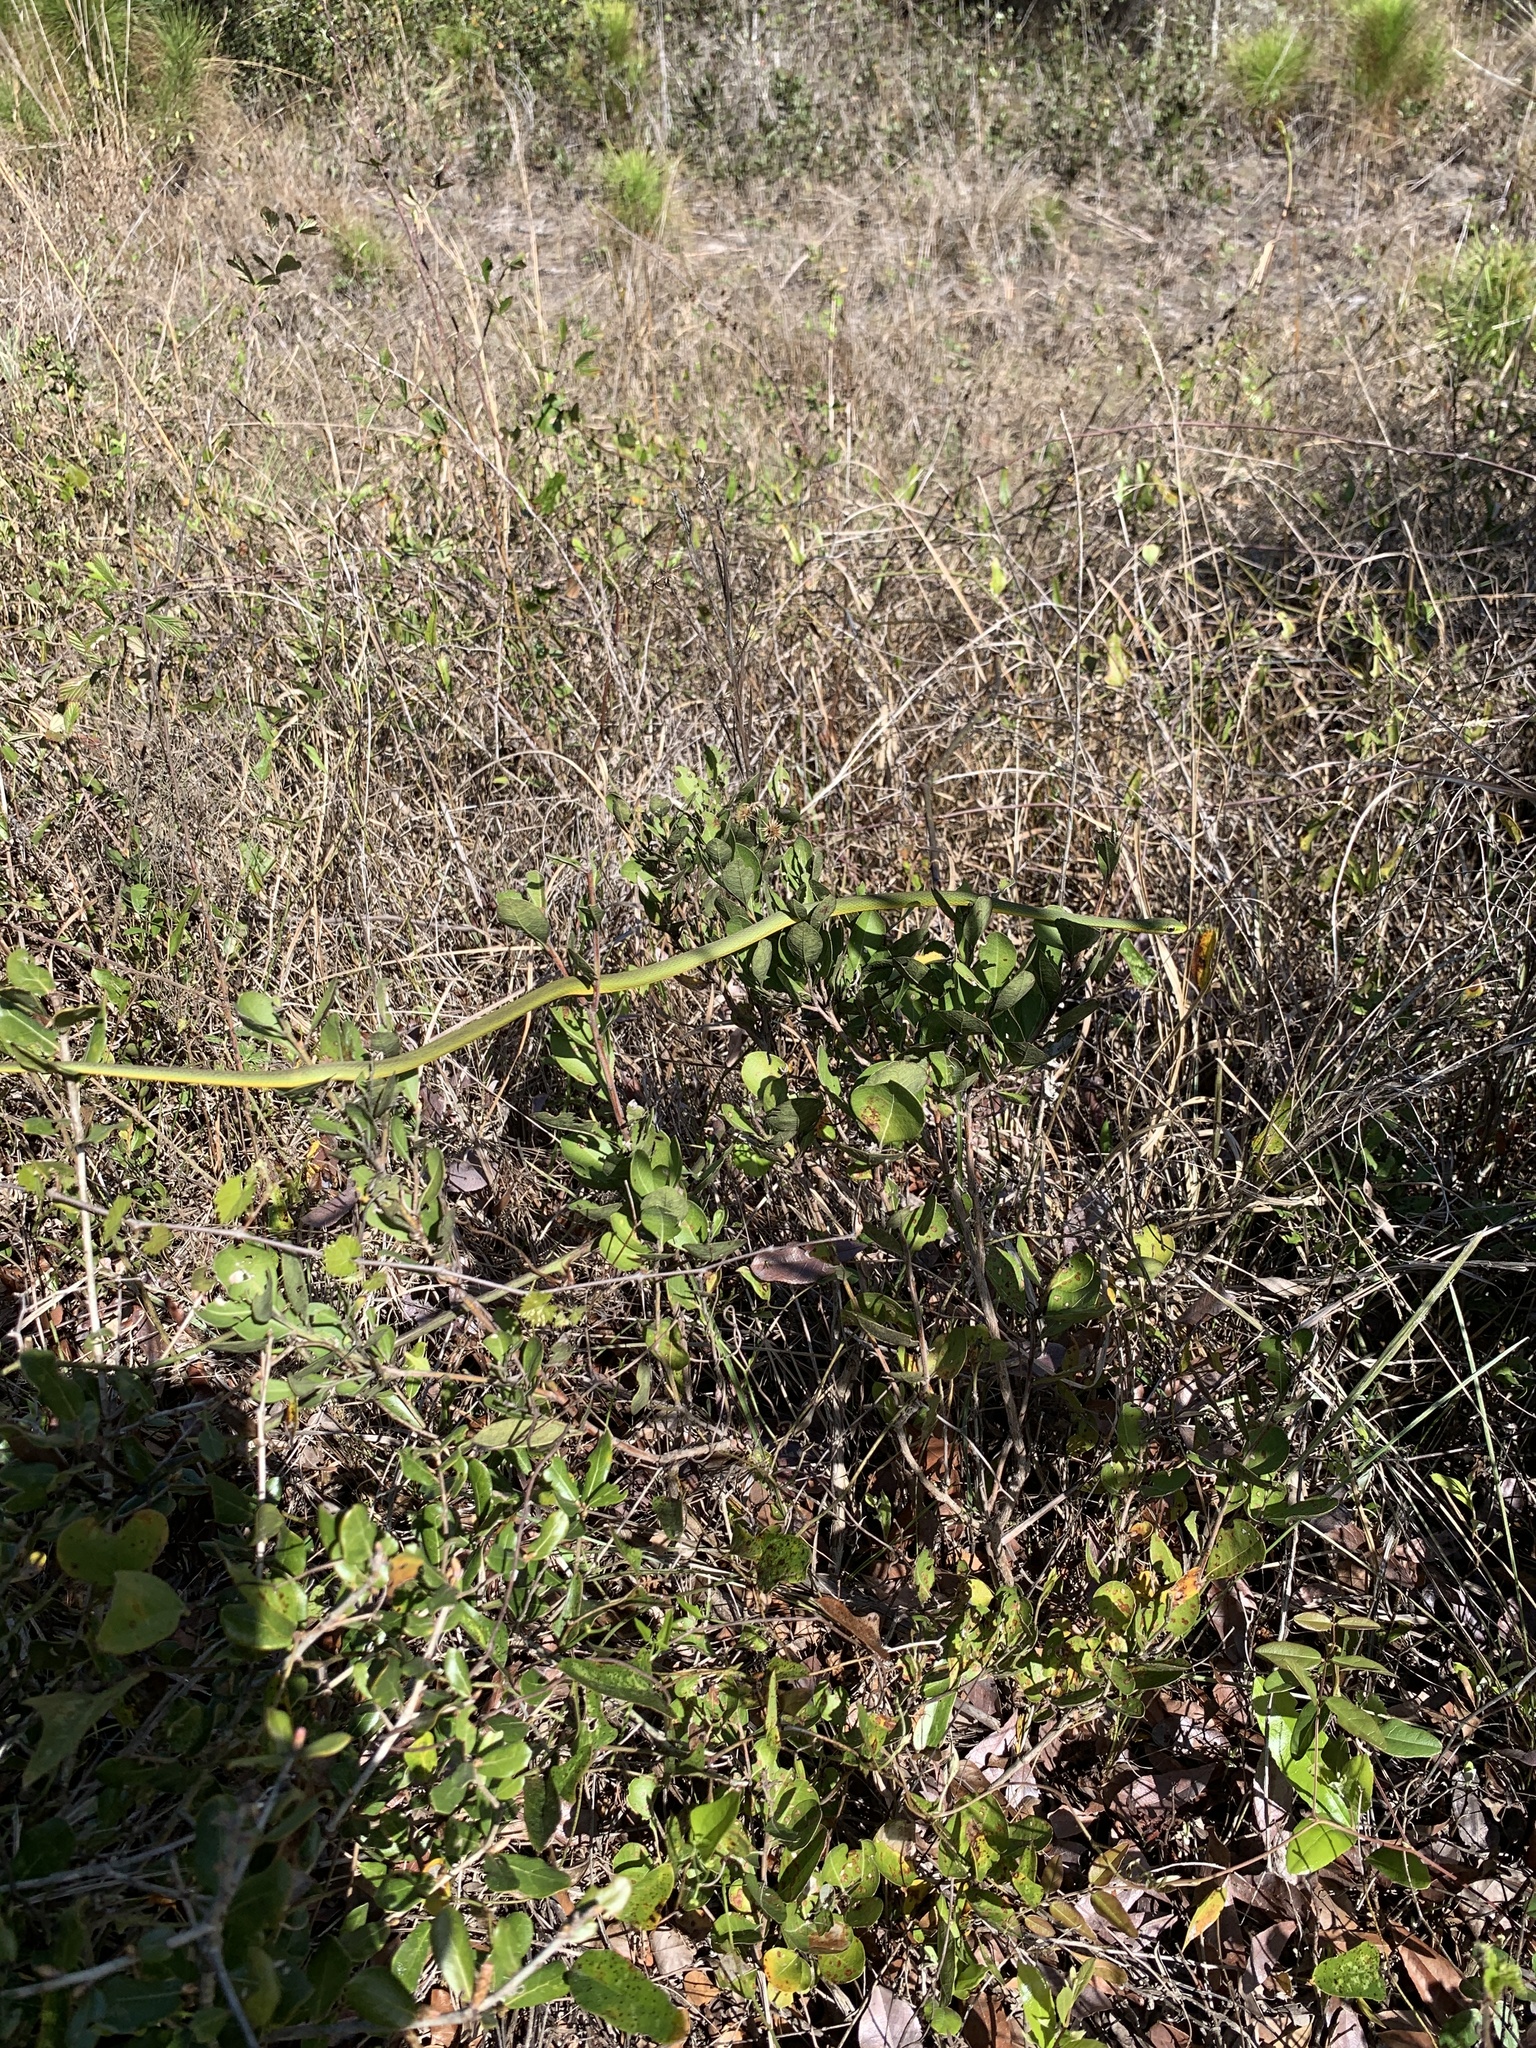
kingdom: Animalia
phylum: Chordata
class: Squamata
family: Colubridae
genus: Opheodrys
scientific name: Opheodrys aestivus
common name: Rough greensnake
